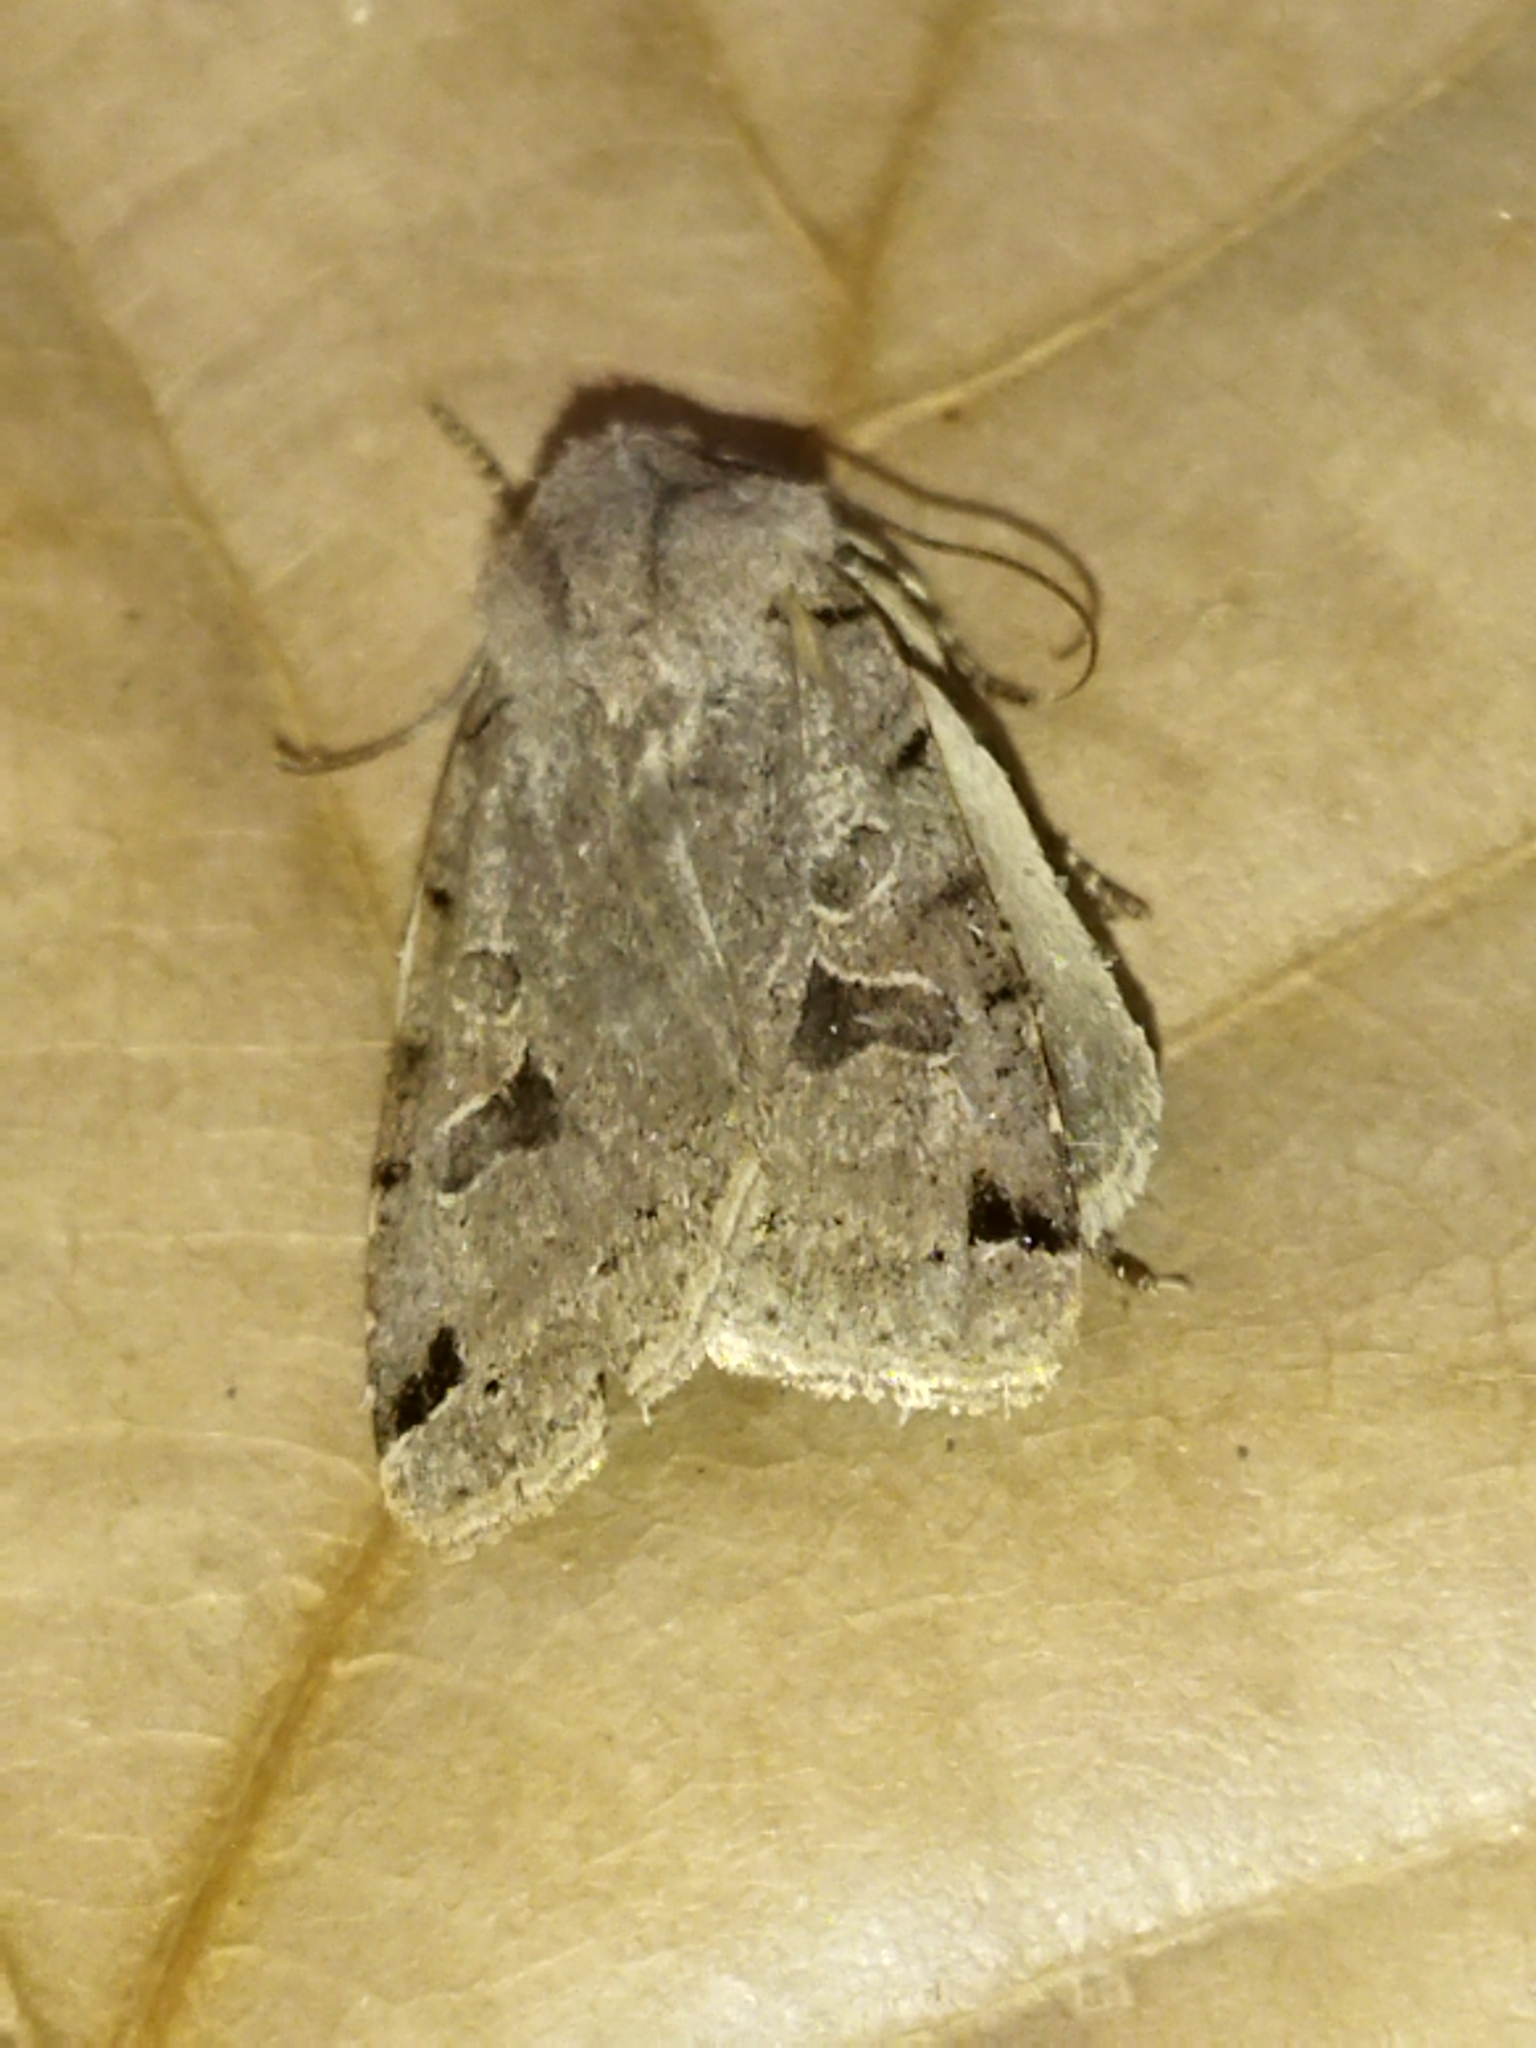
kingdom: Animalia
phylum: Arthropoda
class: Insecta
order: Lepidoptera
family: Noctuidae
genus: Agrochola
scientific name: Agrochola luteogrisea
